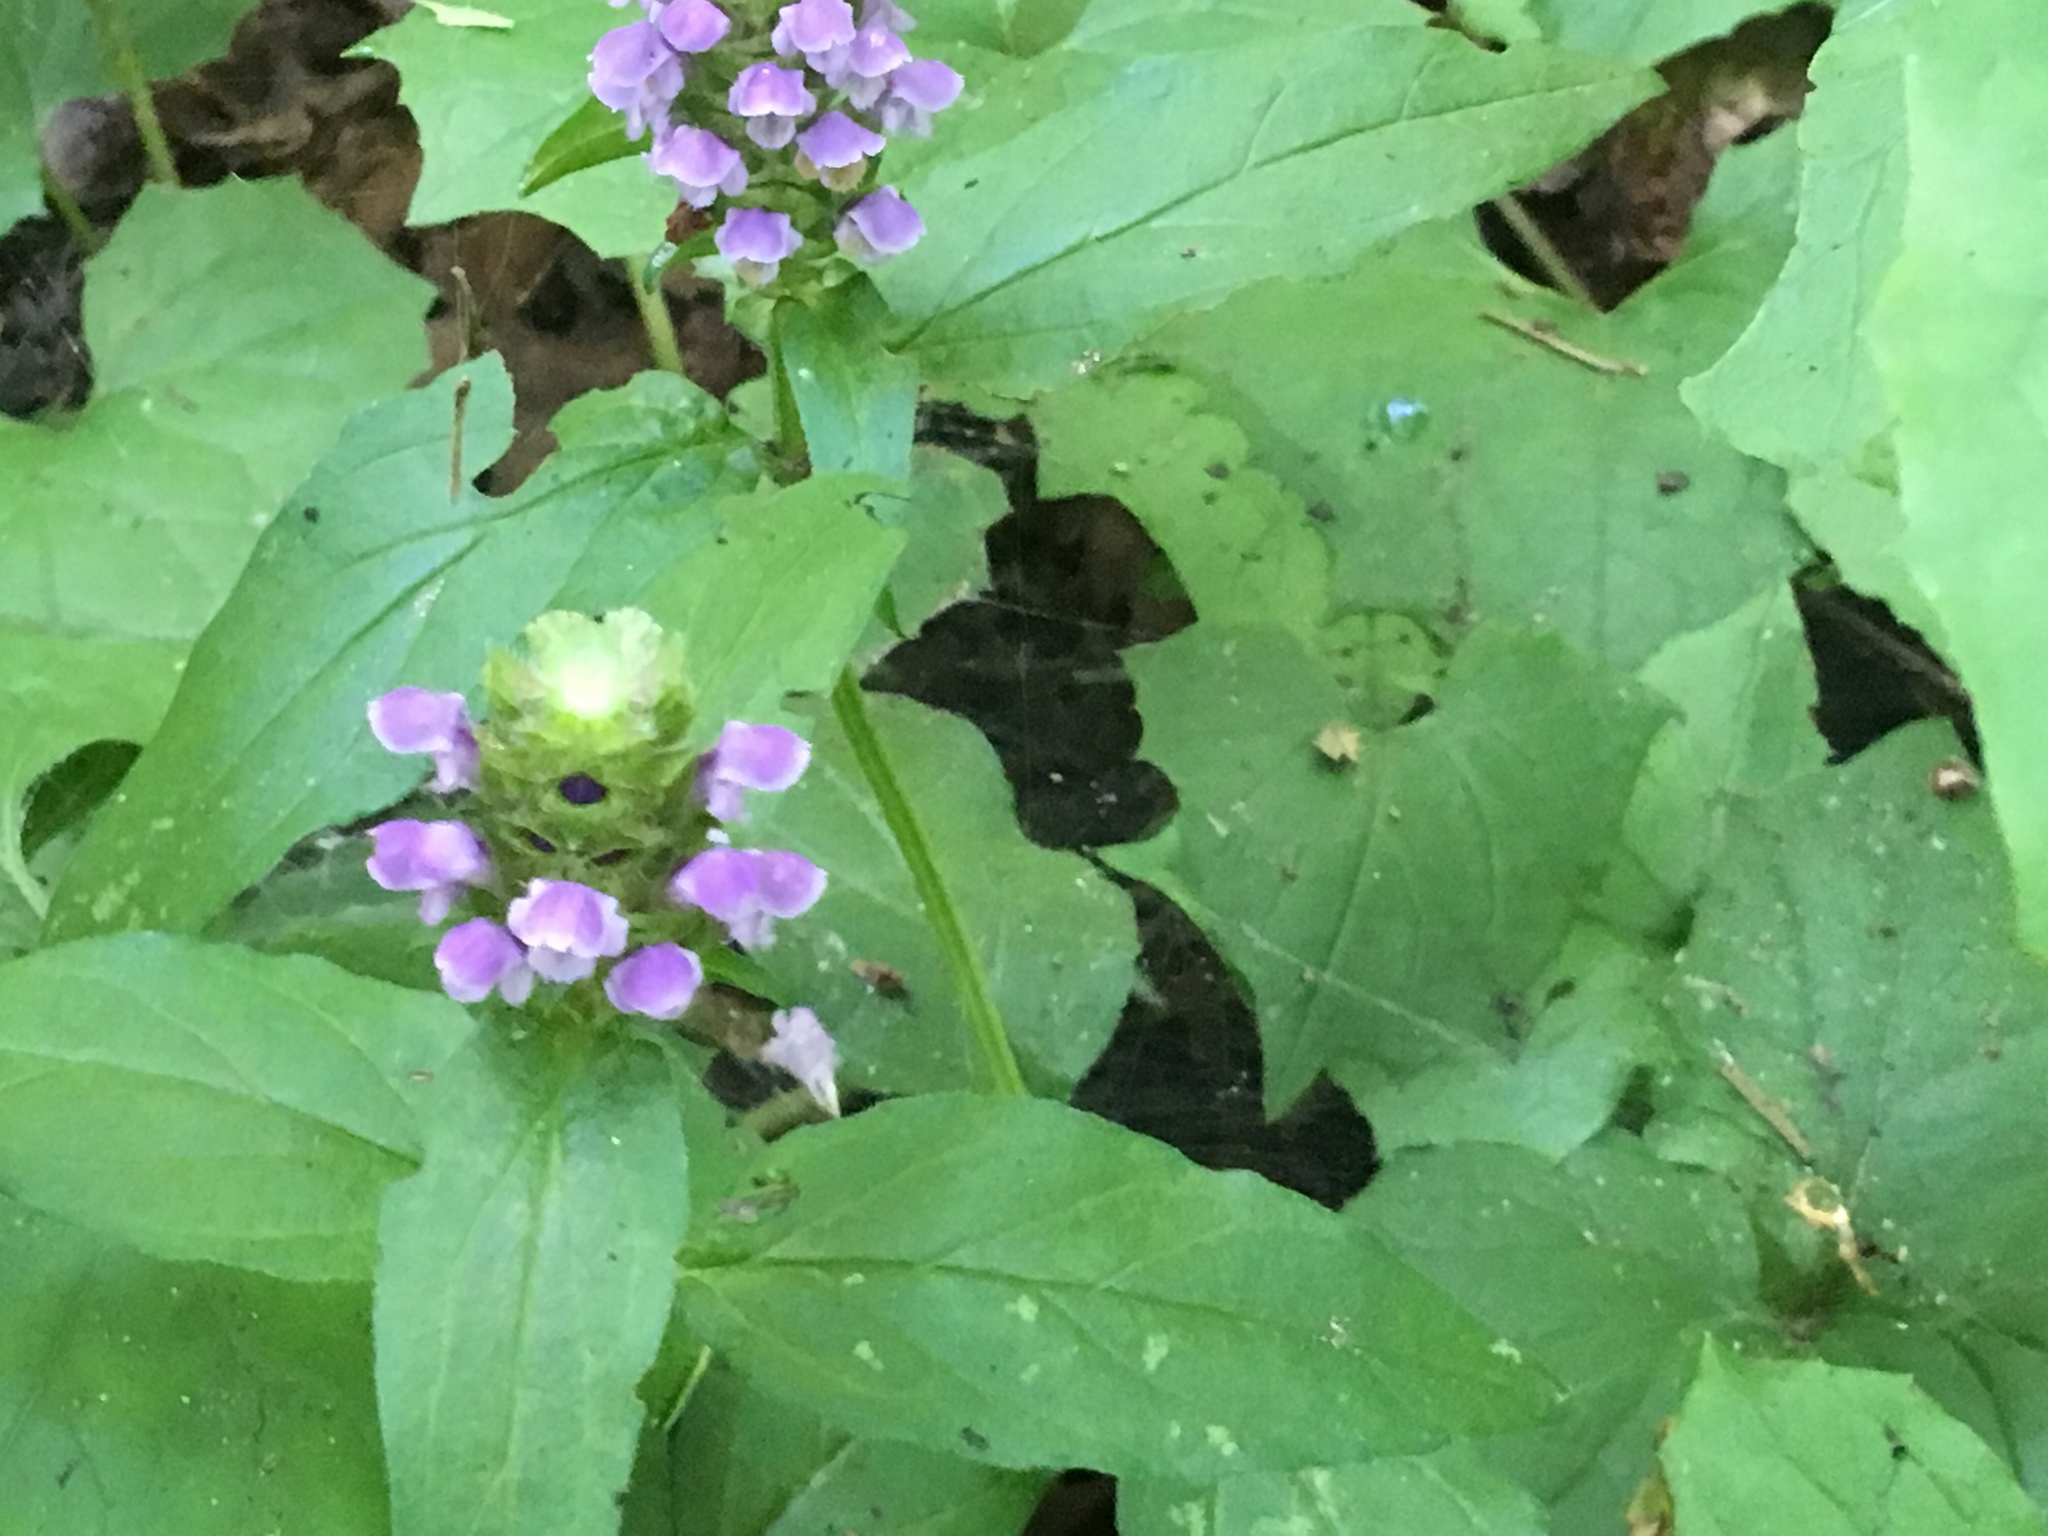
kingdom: Plantae
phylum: Tracheophyta
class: Magnoliopsida
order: Lamiales
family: Lamiaceae
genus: Prunella
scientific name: Prunella vulgaris
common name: Heal-all
